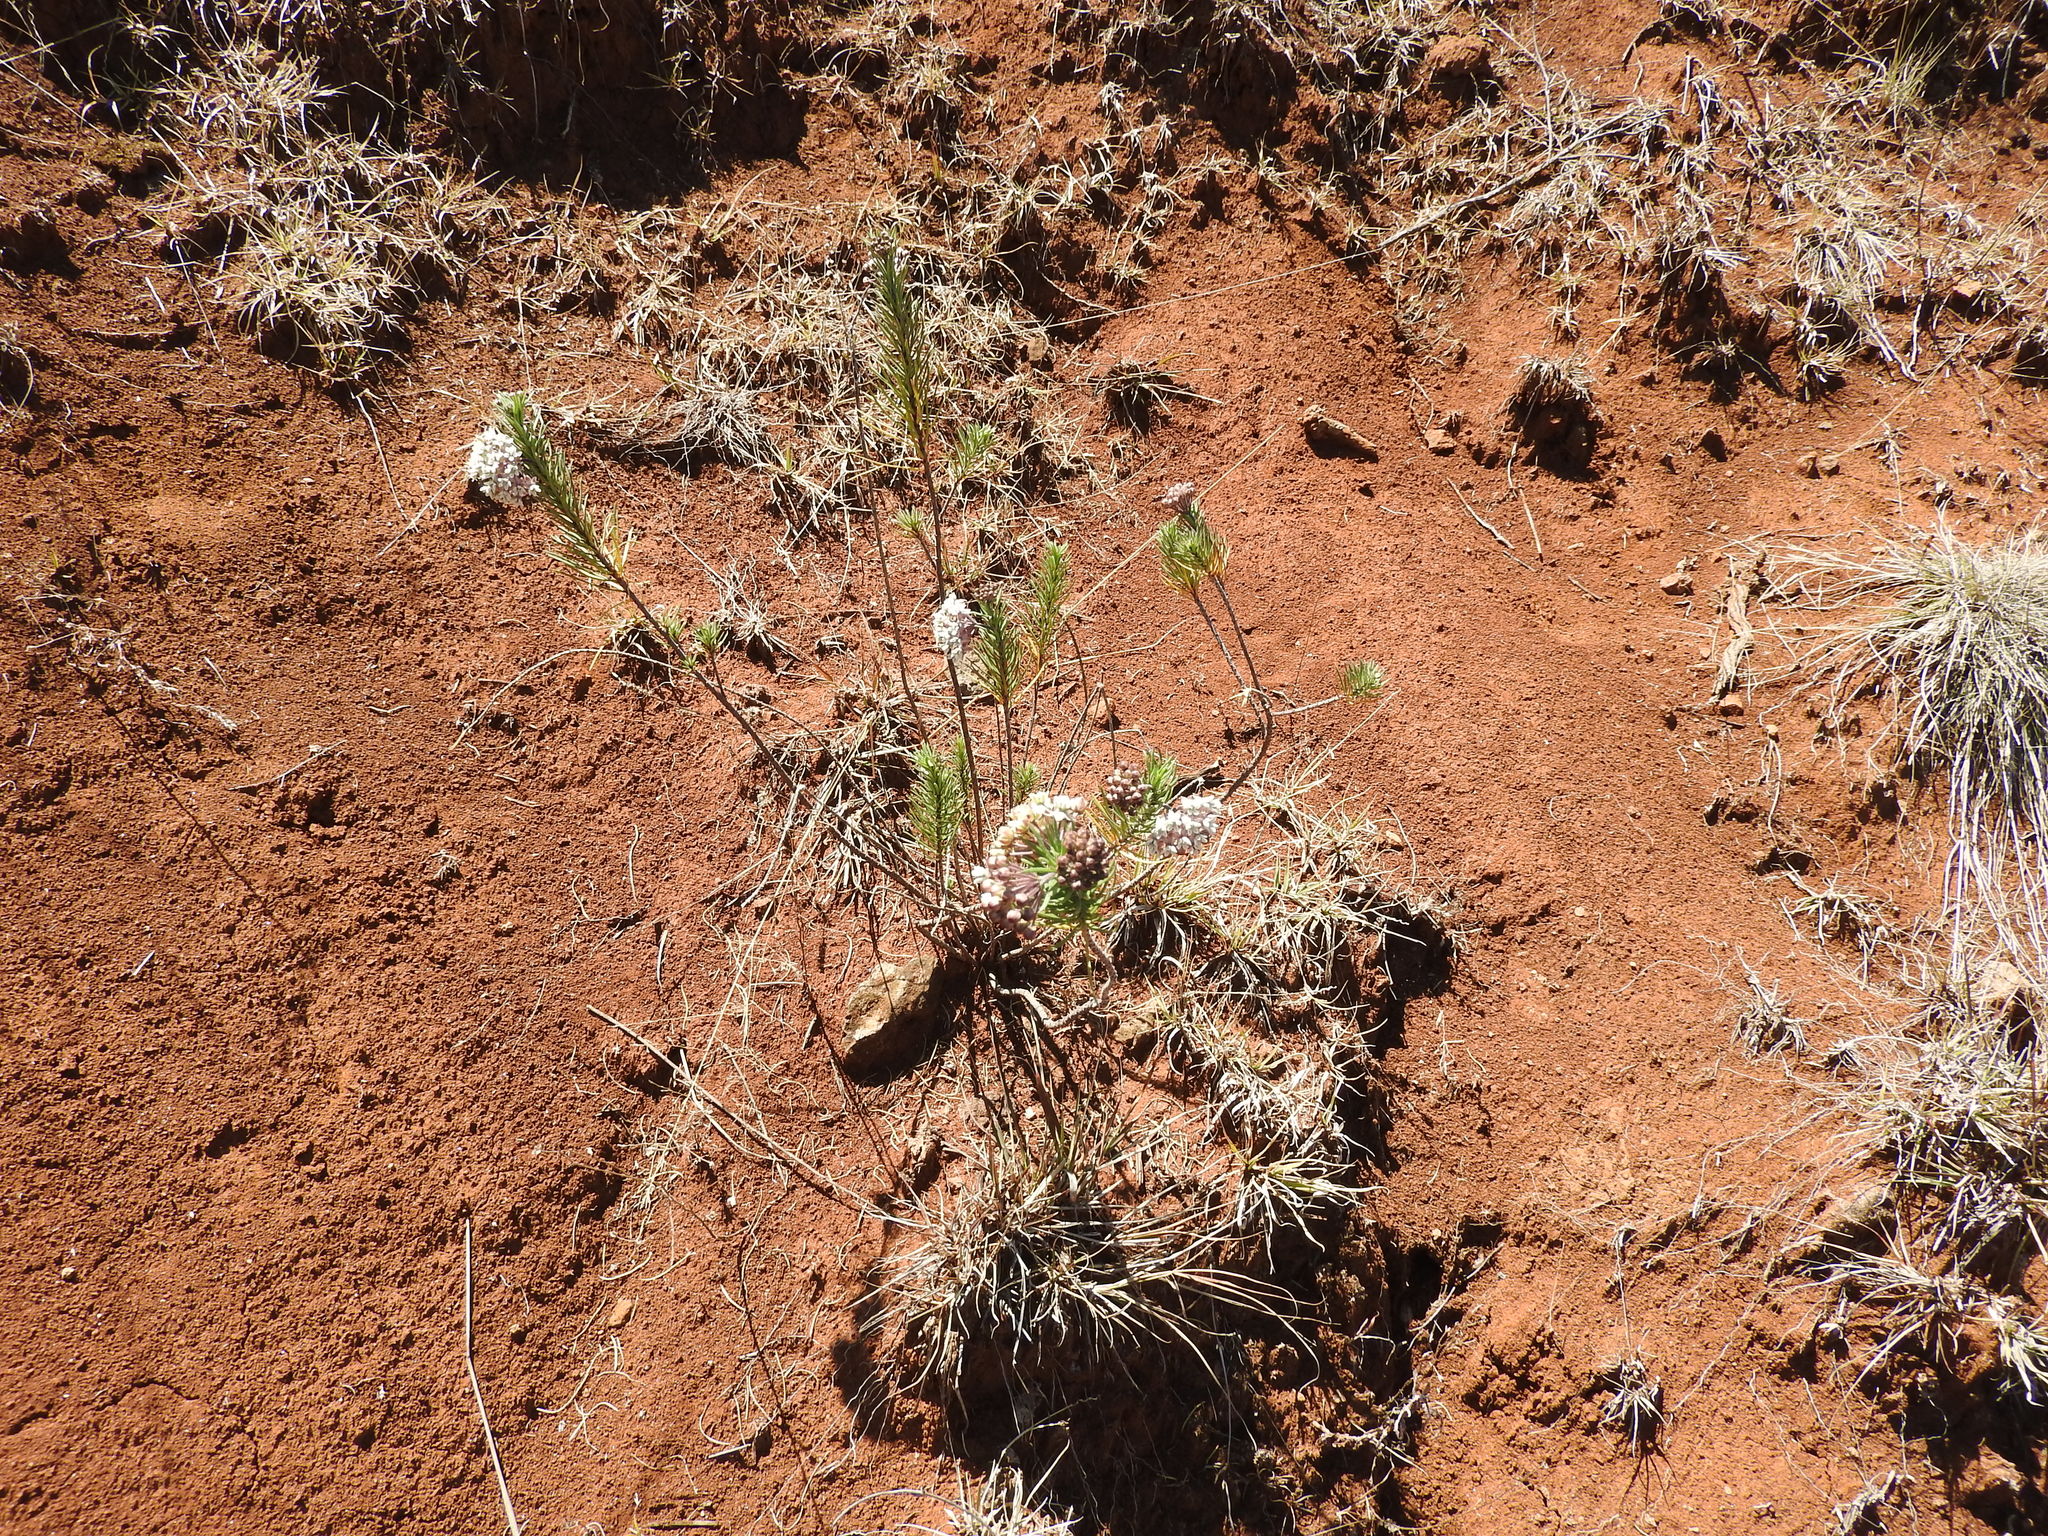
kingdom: Plantae
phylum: Tracheophyta
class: Magnoliopsida
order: Gentianales
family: Apocynaceae
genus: Asclepias
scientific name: Asclepias linaria
